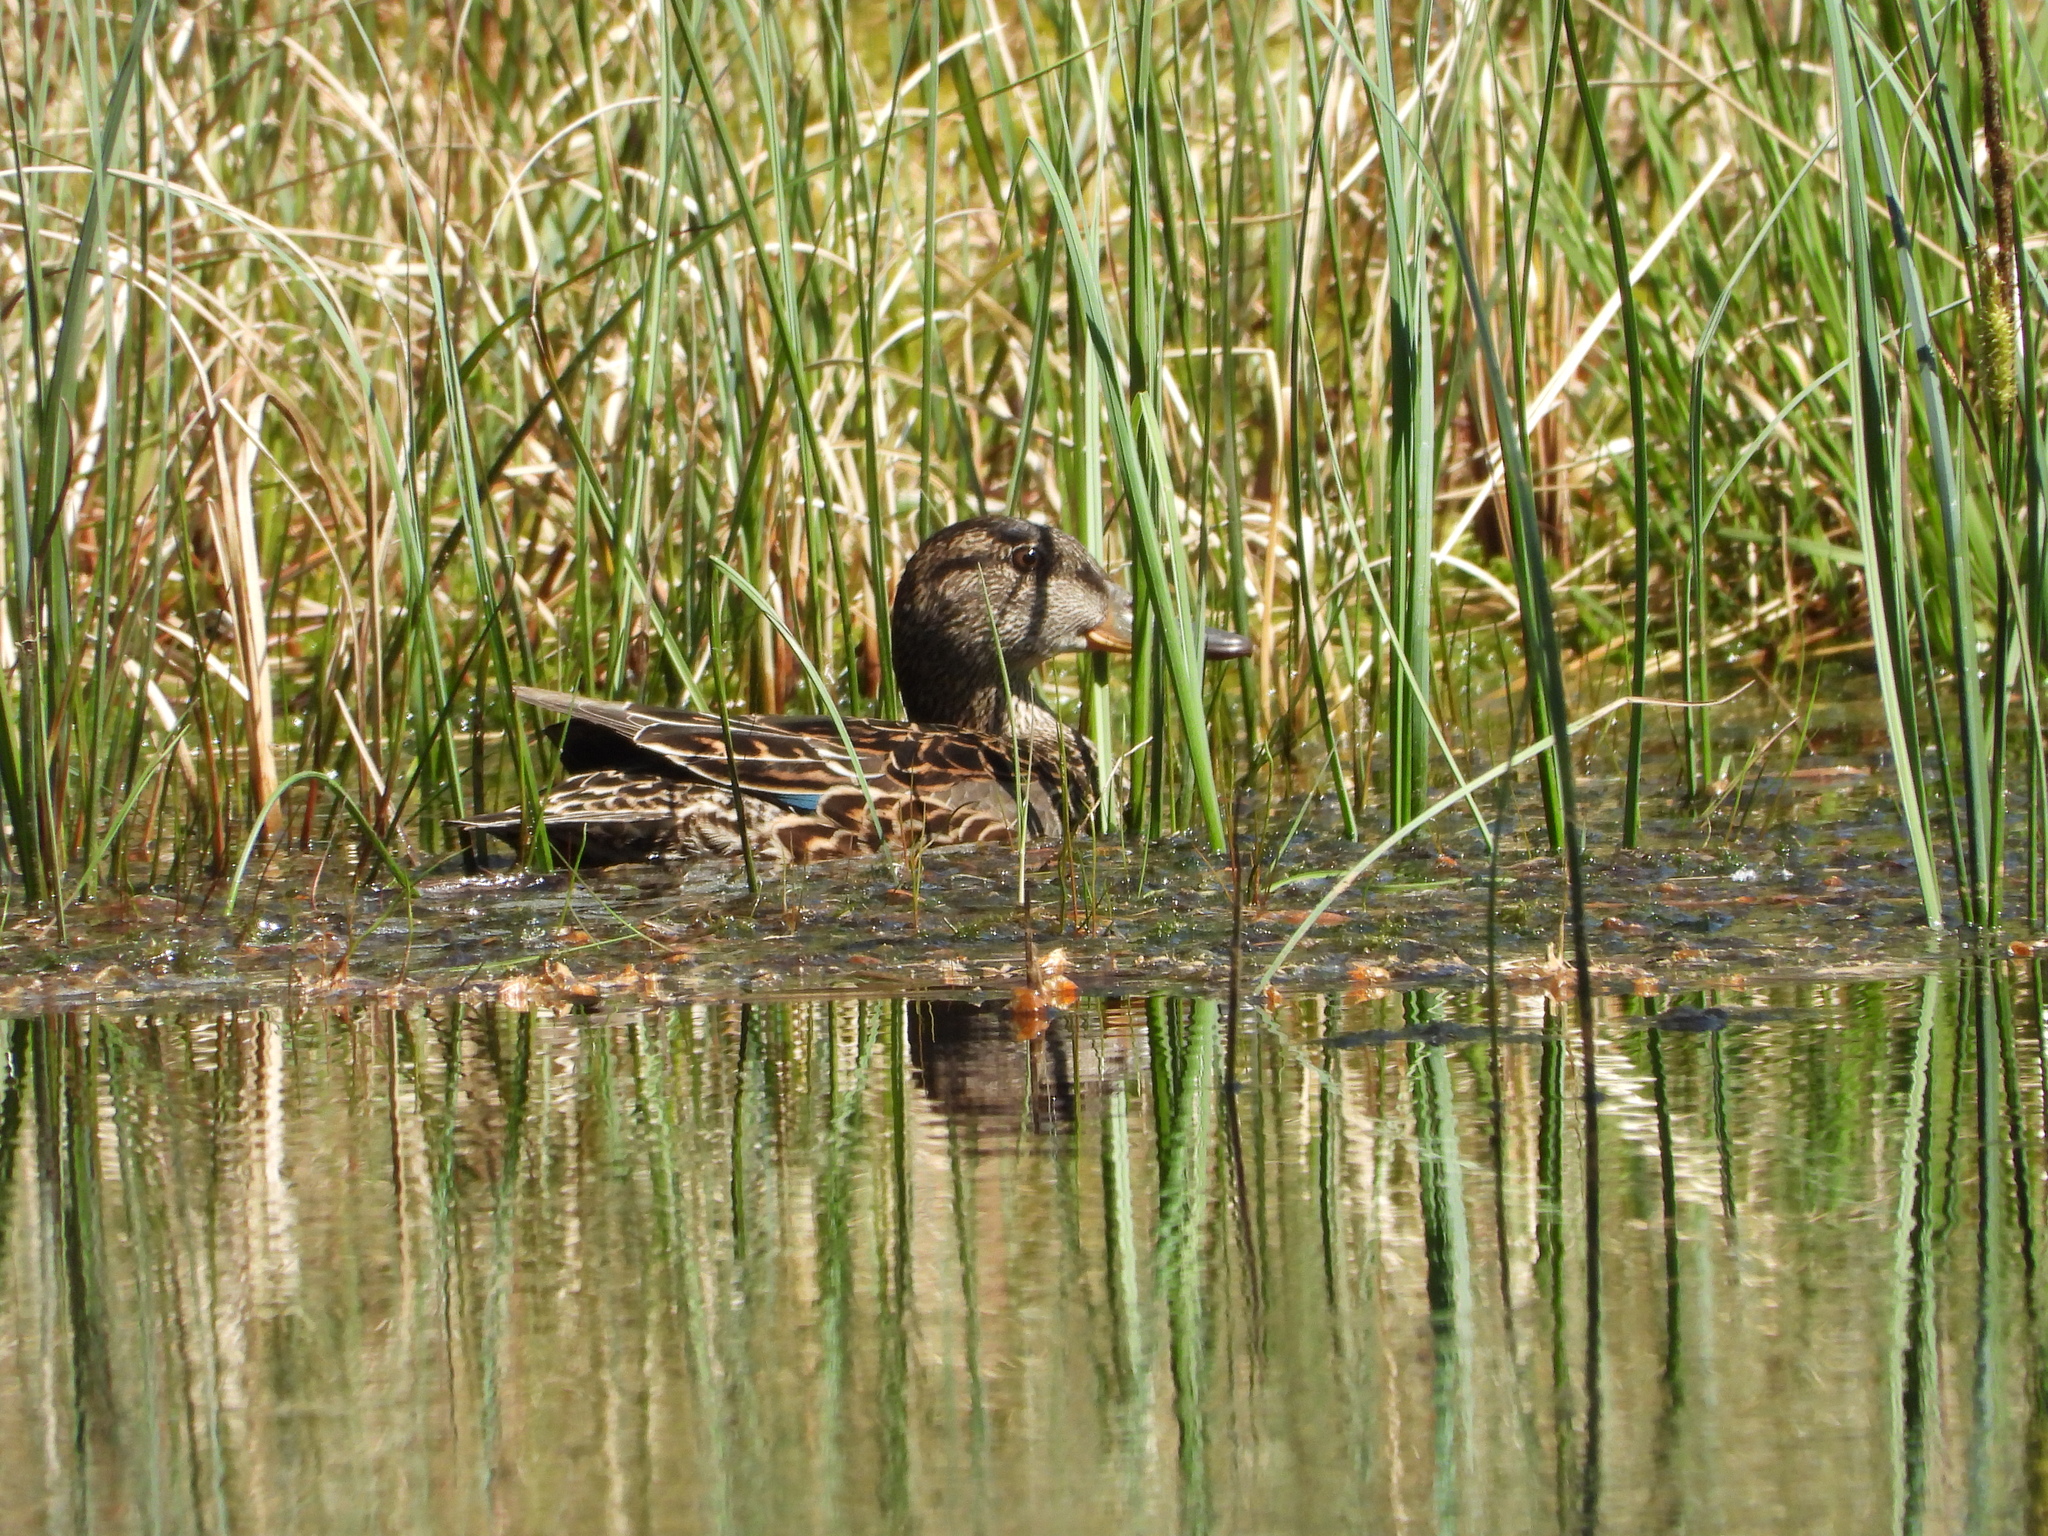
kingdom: Animalia
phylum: Chordata
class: Aves
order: Anseriformes
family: Anatidae
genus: Anas
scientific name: Anas platyrhynchos
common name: Mallard
